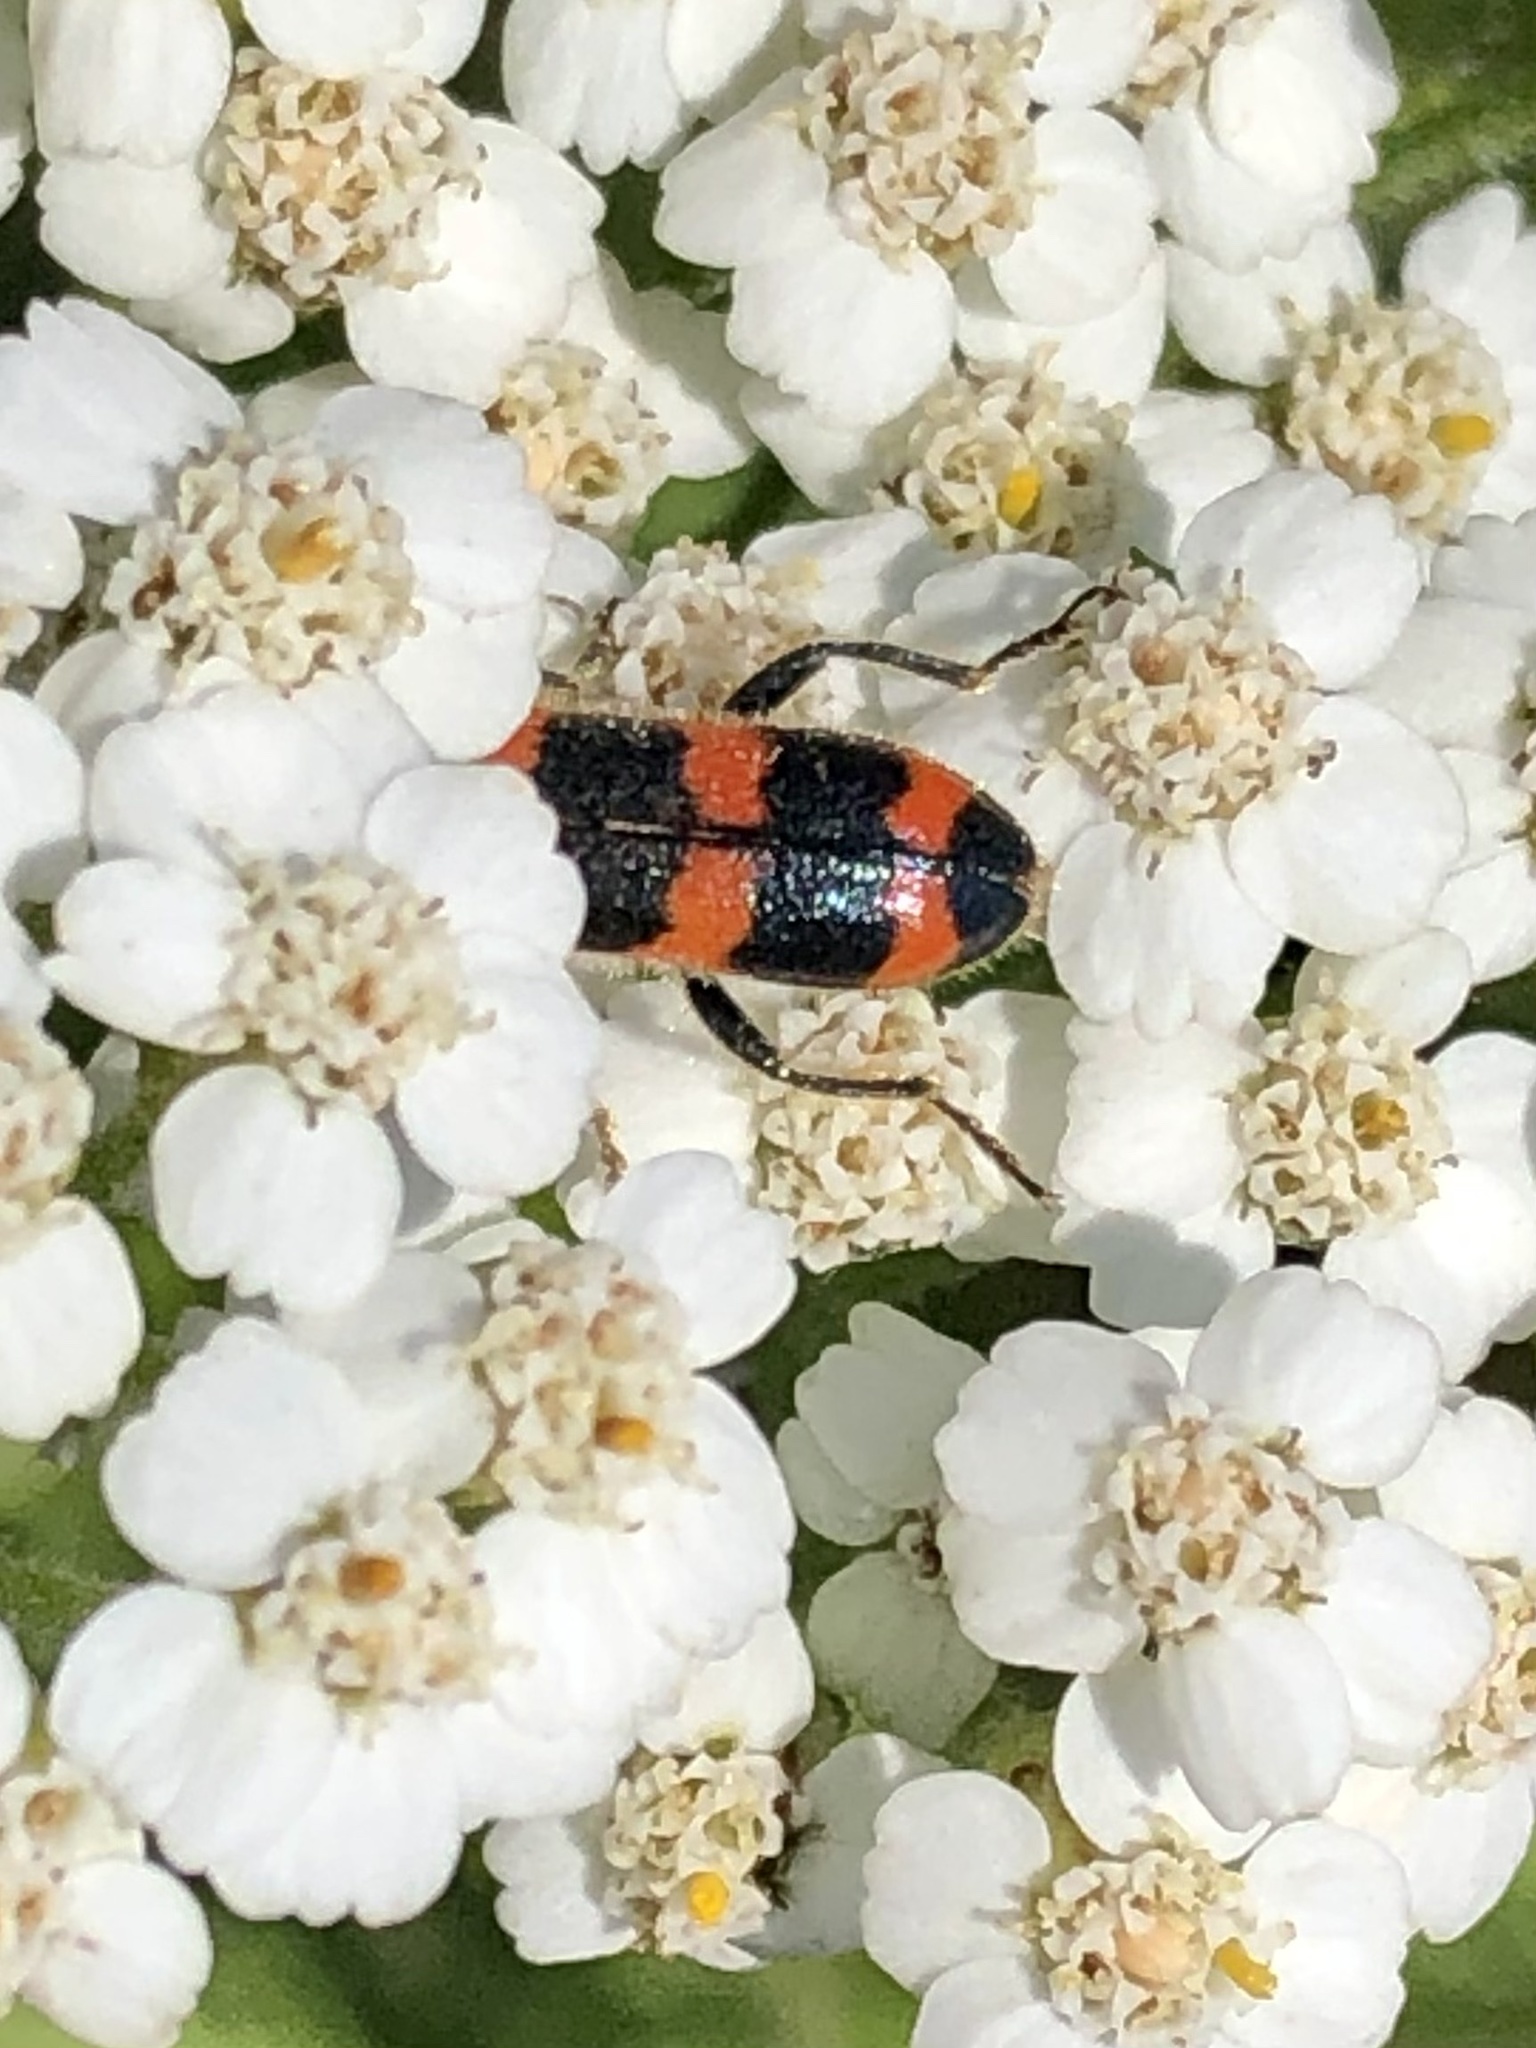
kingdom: Animalia
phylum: Arthropoda
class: Insecta
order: Coleoptera
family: Cleridae
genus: Trichodes
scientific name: Trichodes nutalli
